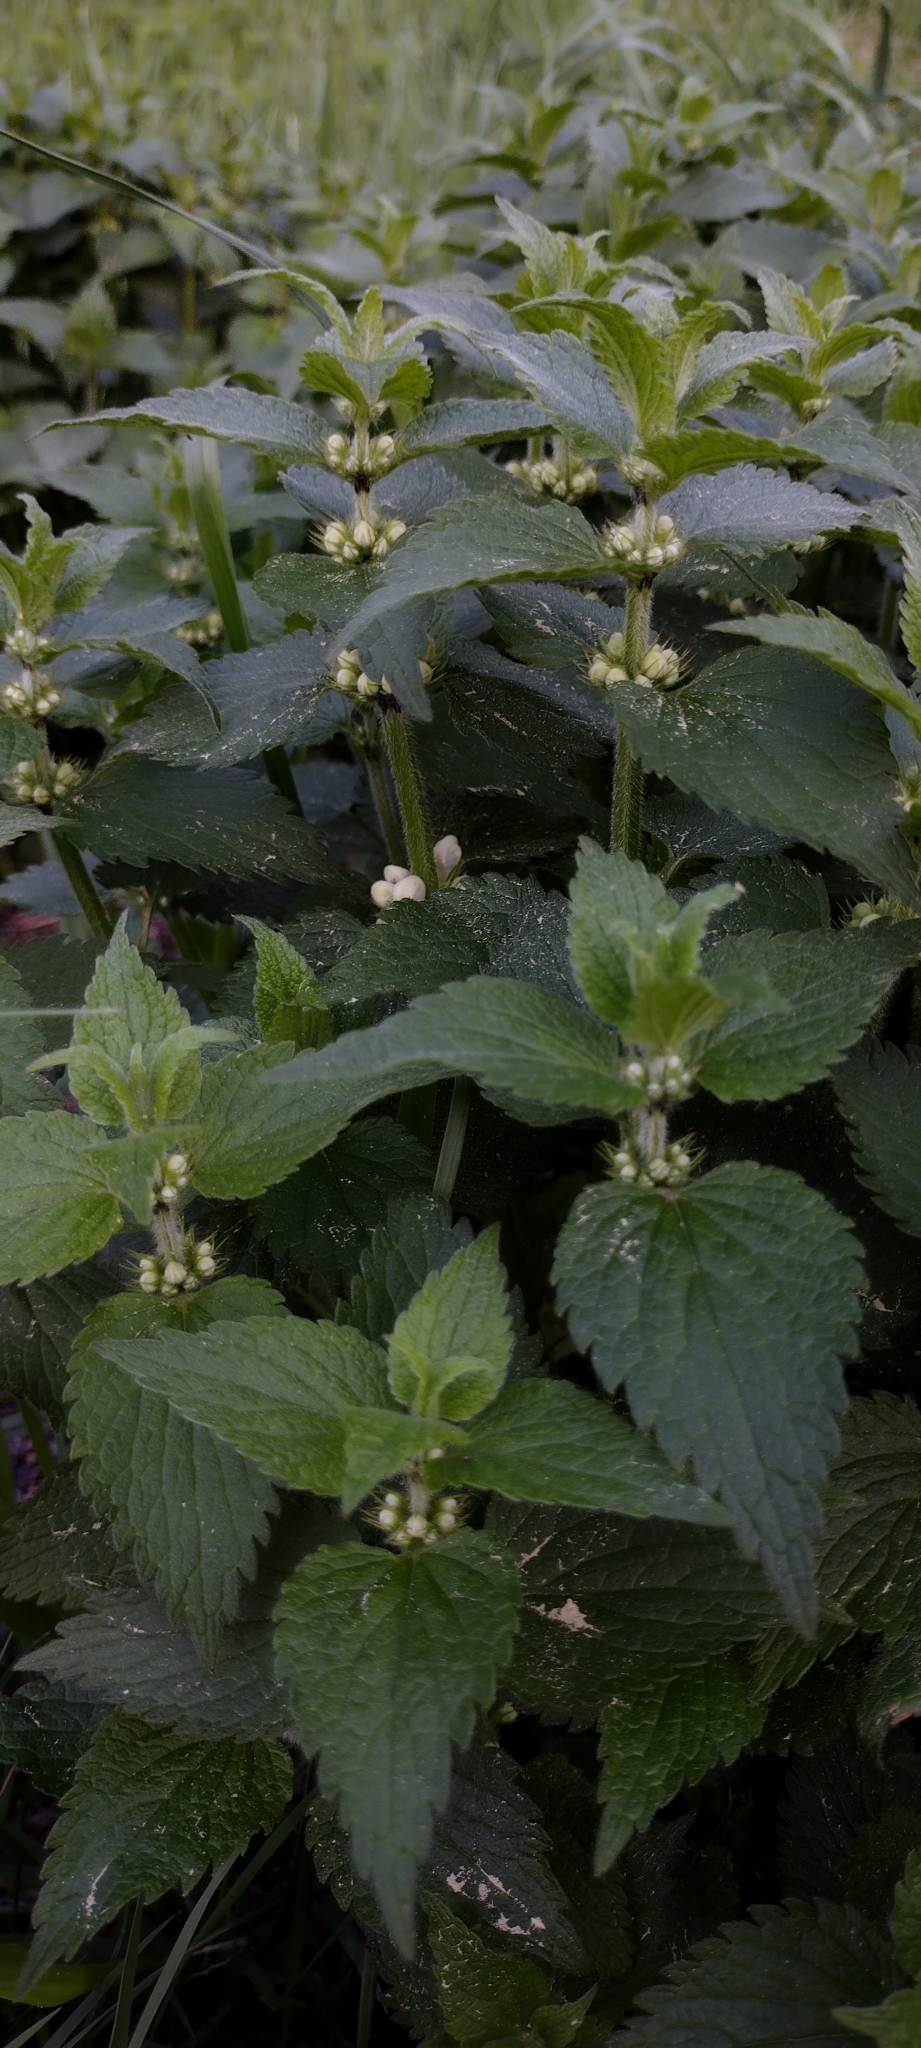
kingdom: Plantae
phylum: Tracheophyta
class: Magnoliopsida
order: Lamiales
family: Lamiaceae
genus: Lamium
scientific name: Lamium album
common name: White dead-nettle
